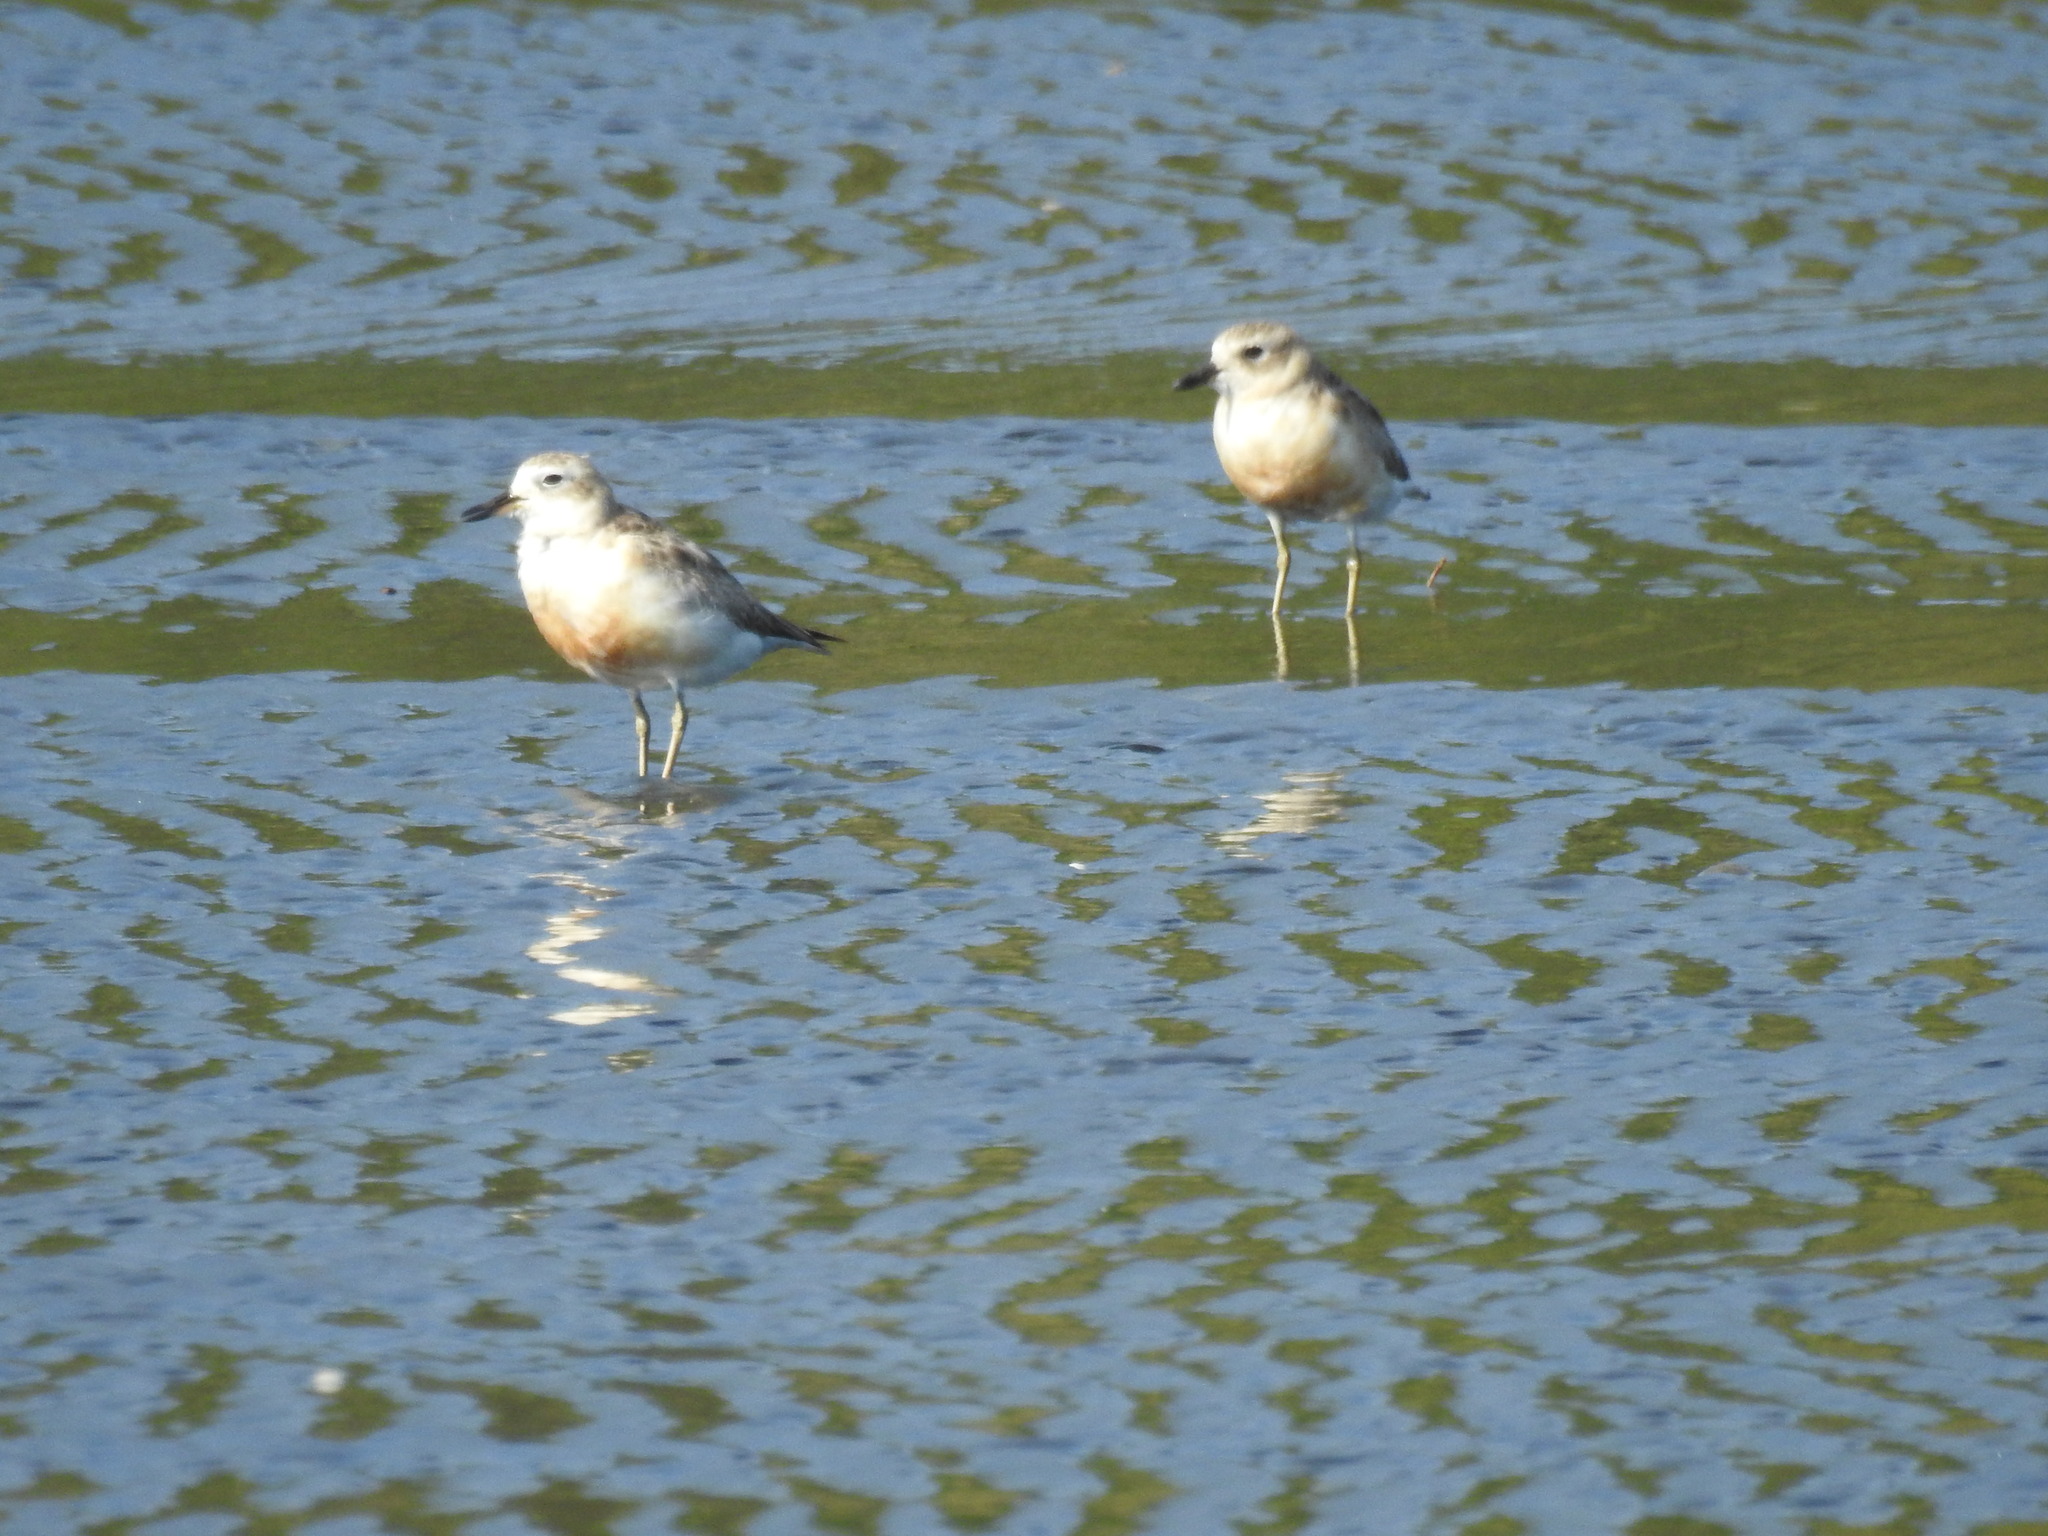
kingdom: Animalia
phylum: Chordata
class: Aves
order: Charadriiformes
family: Charadriidae
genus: Anarhynchus
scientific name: Anarhynchus
